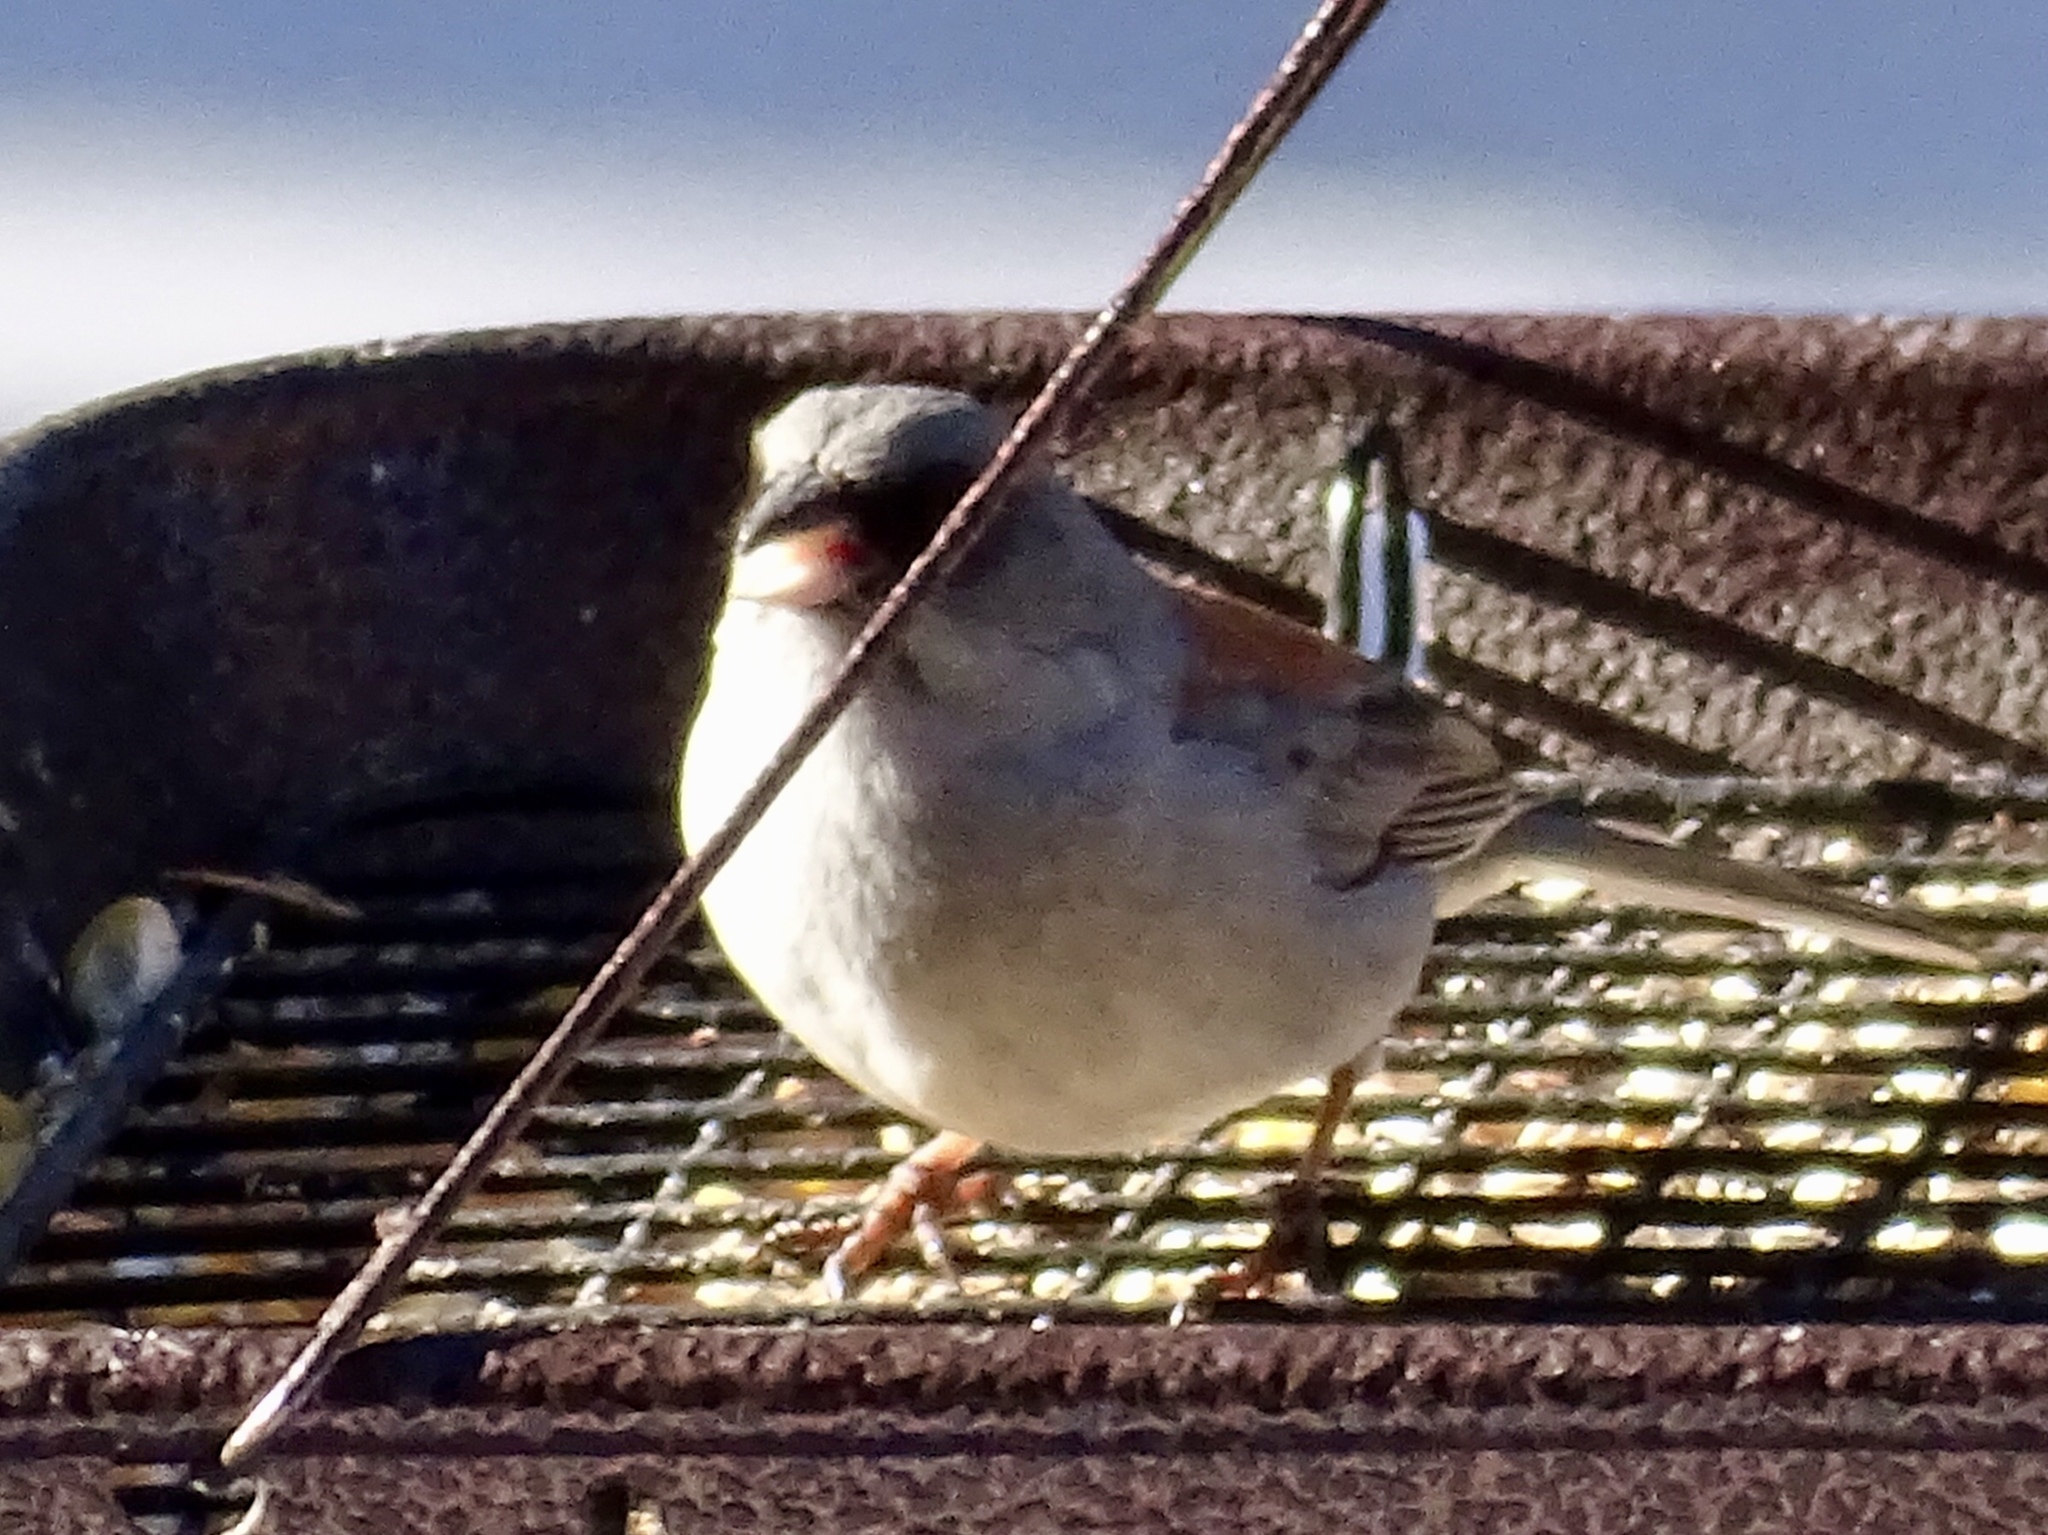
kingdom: Animalia
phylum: Chordata
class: Aves
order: Passeriformes
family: Passerellidae
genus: Junco
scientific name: Junco hyemalis
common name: Dark-eyed junco
